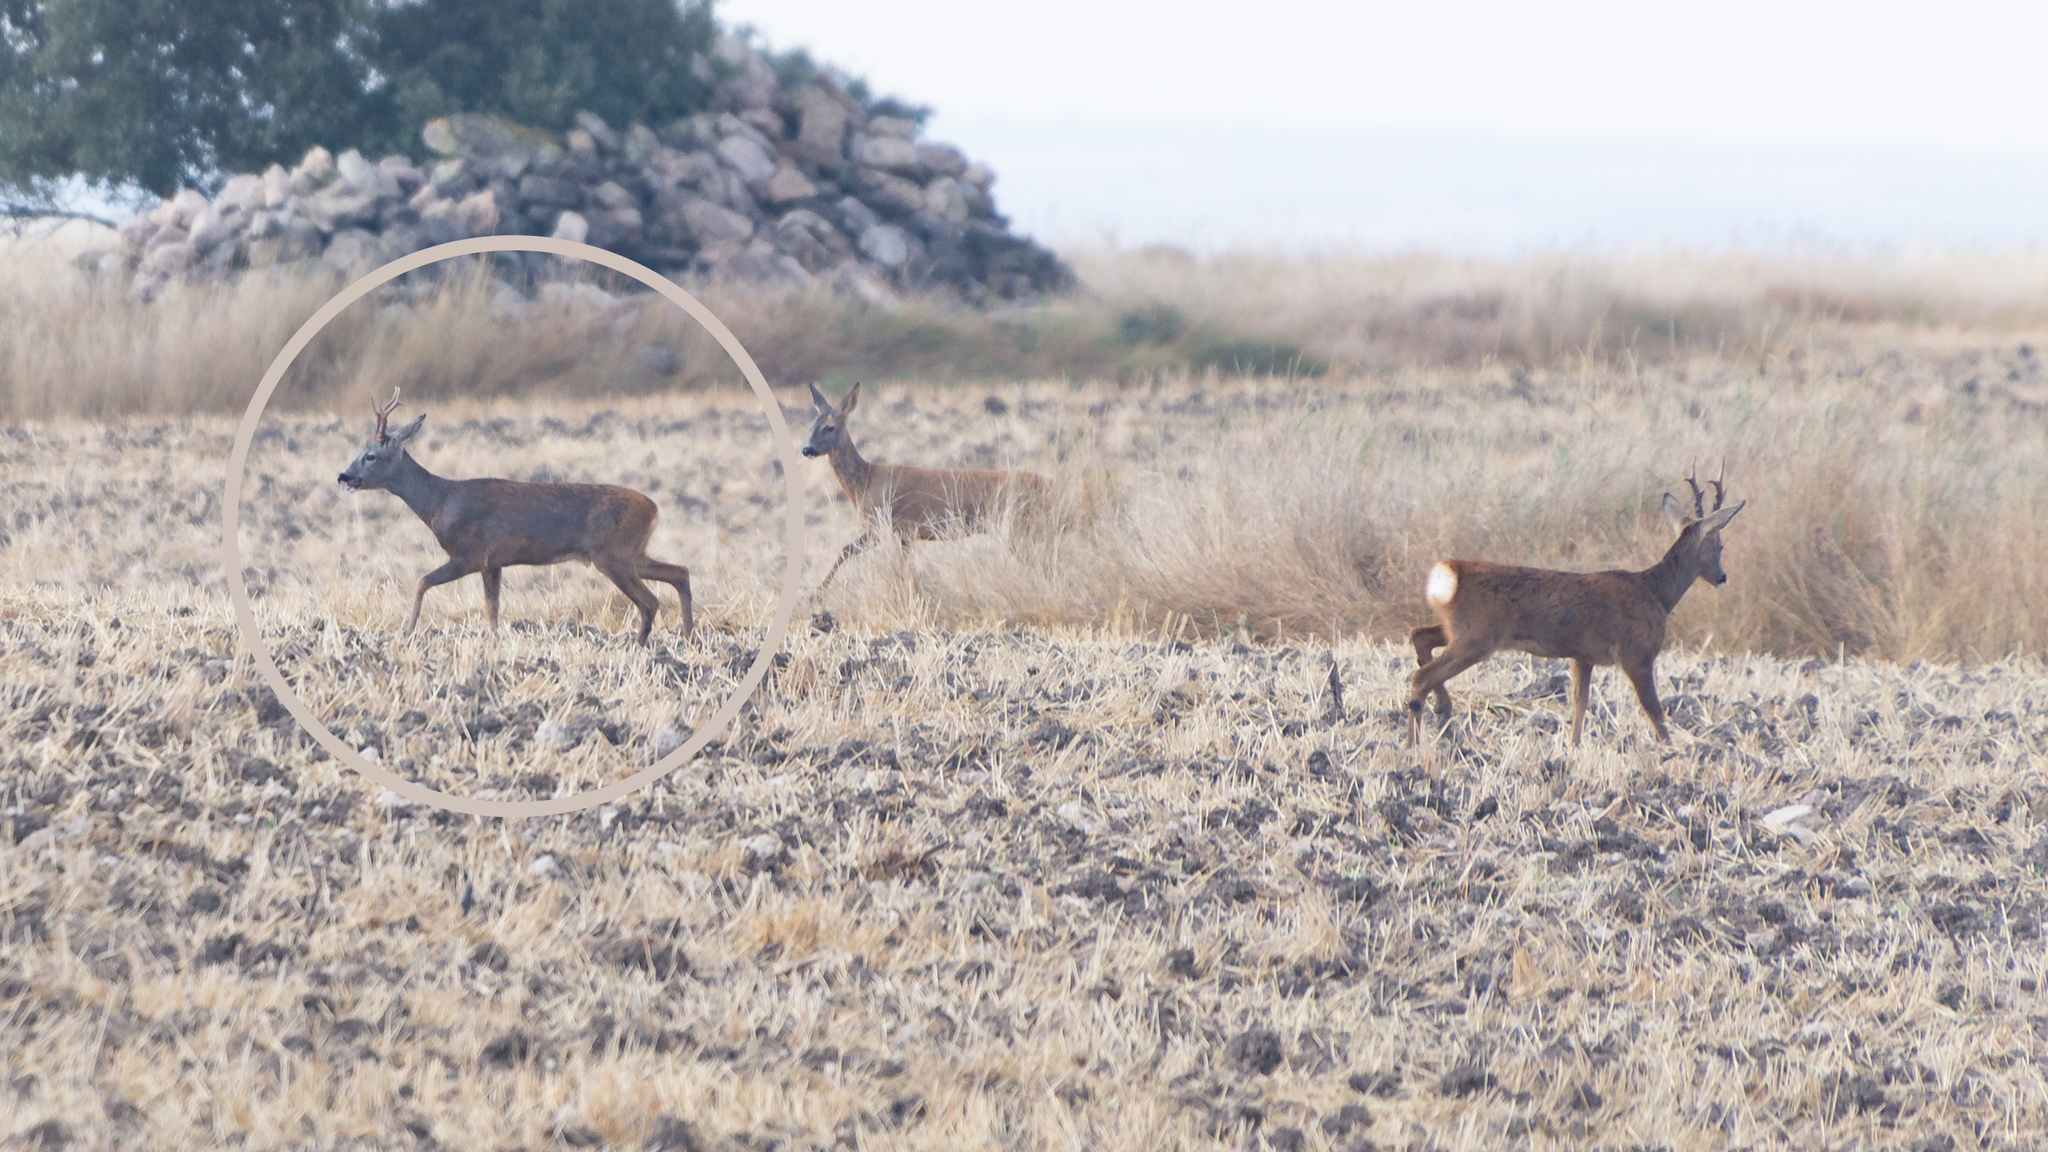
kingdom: Animalia
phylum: Chordata
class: Mammalia
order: Artiodactyla
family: Cervidae
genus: Capreolus
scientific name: Capreolus capreolus
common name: Western roe deer
